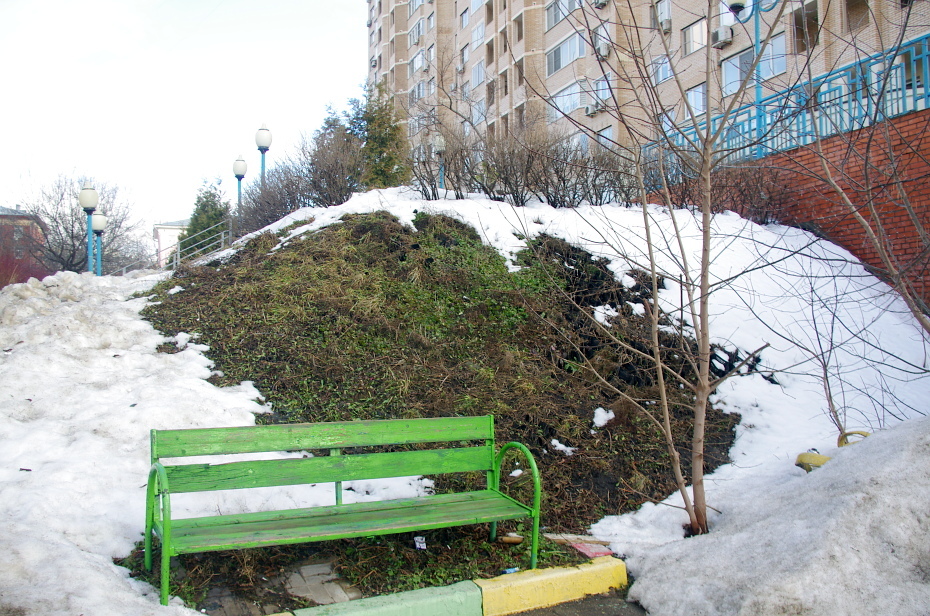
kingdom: Plantae
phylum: Tracheophyta
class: Magnoliopsida
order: Lamiales
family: Lamiaceae
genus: Glechoma
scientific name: Glechoma hederacea
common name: Ground ivy
